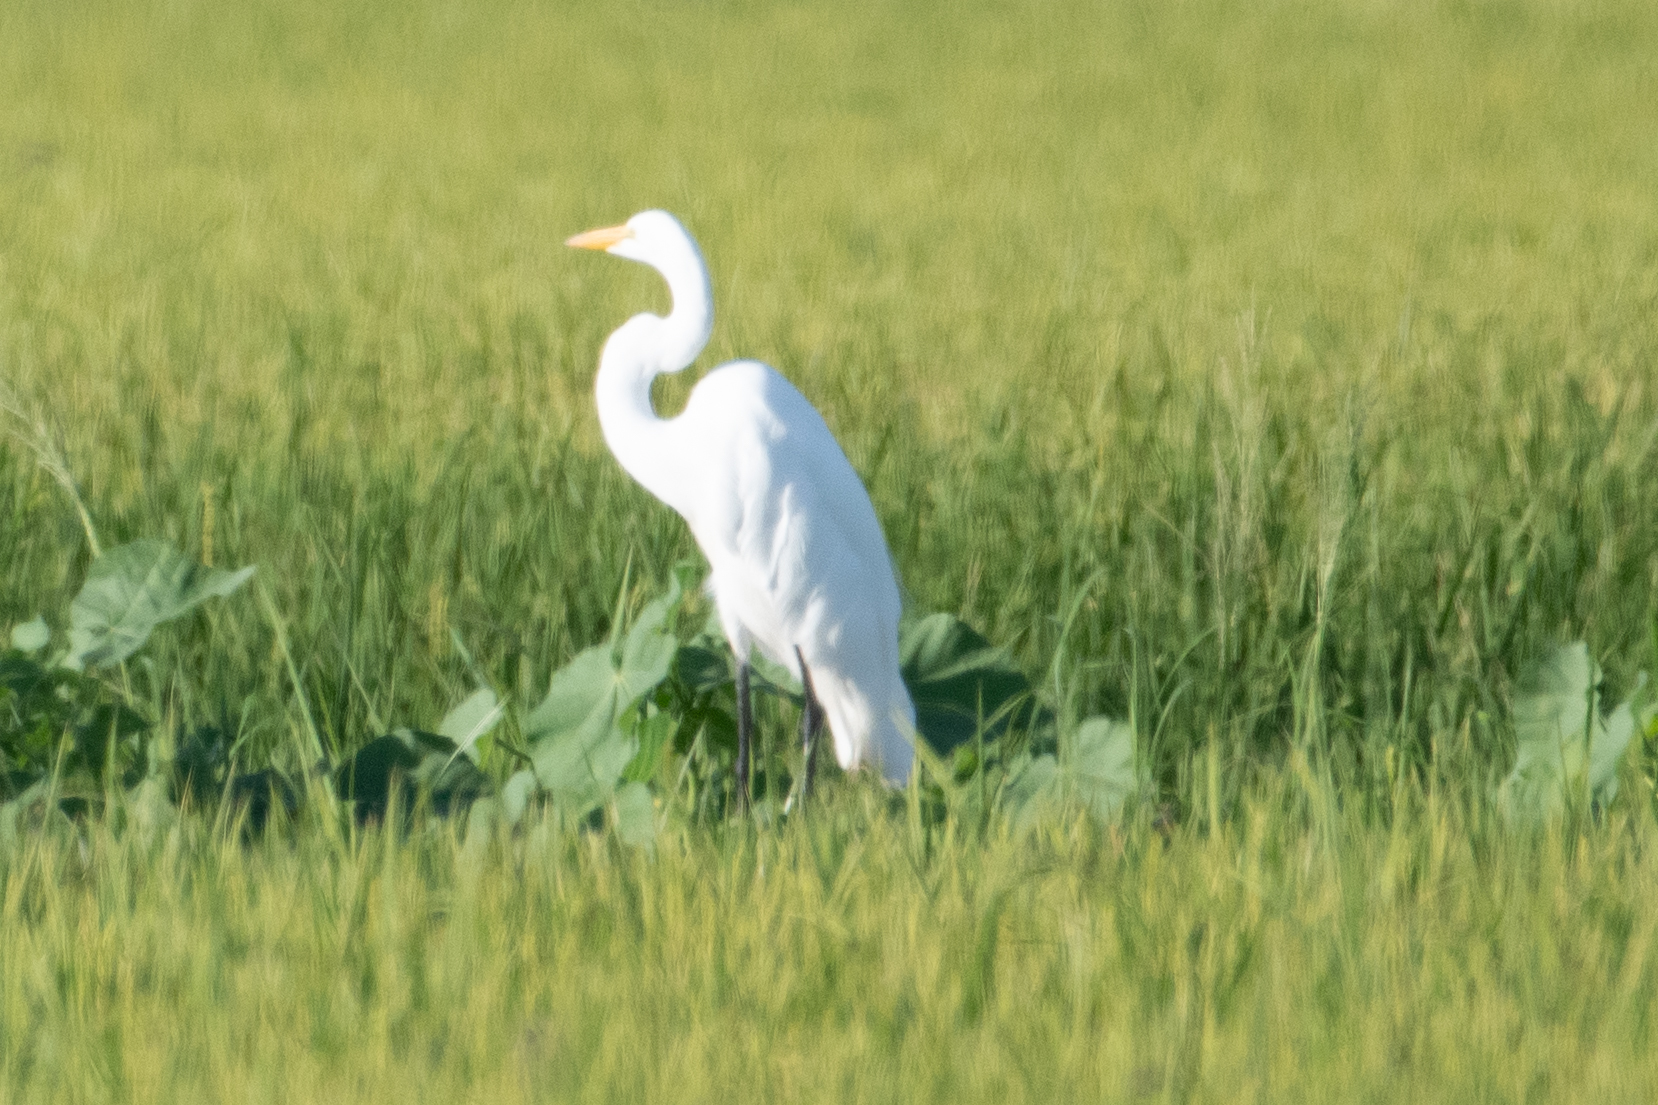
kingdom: Animalia
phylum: Chordata
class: Aves
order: Pelecaniformes
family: Ardeidae
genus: Ardea
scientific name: Ardea alba
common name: Great egret
